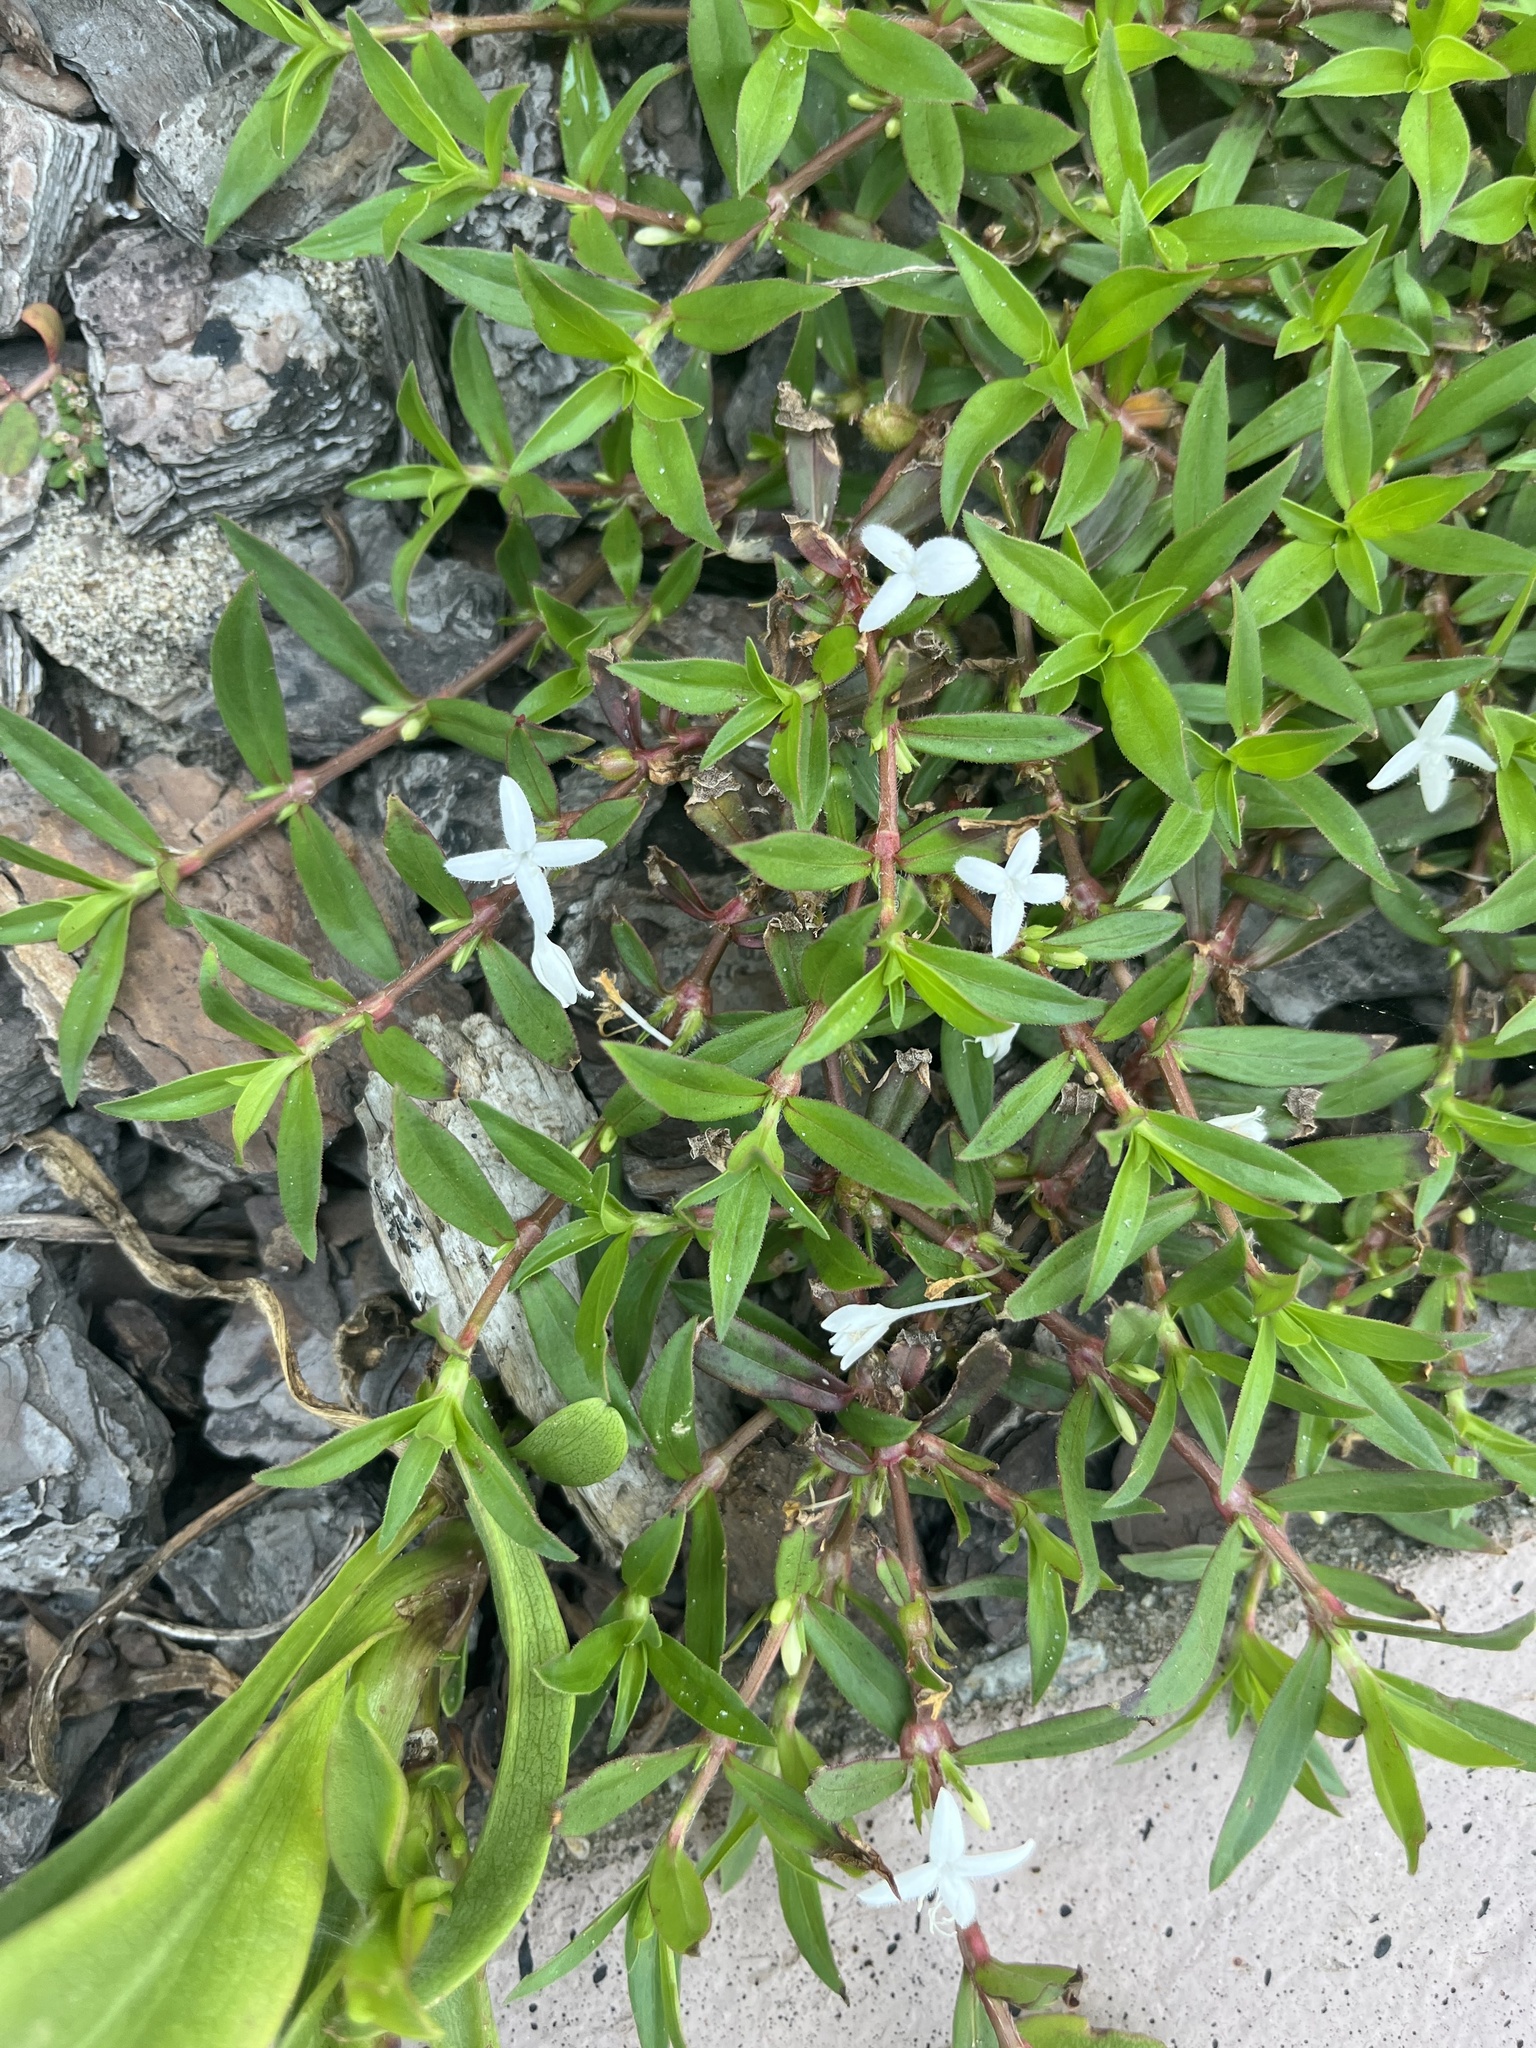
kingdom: Plantae
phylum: Tracheophyta
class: Magnoliopsida
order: Gentianales
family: Rubiaceae
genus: Diodia
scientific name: Diodia virginiana
